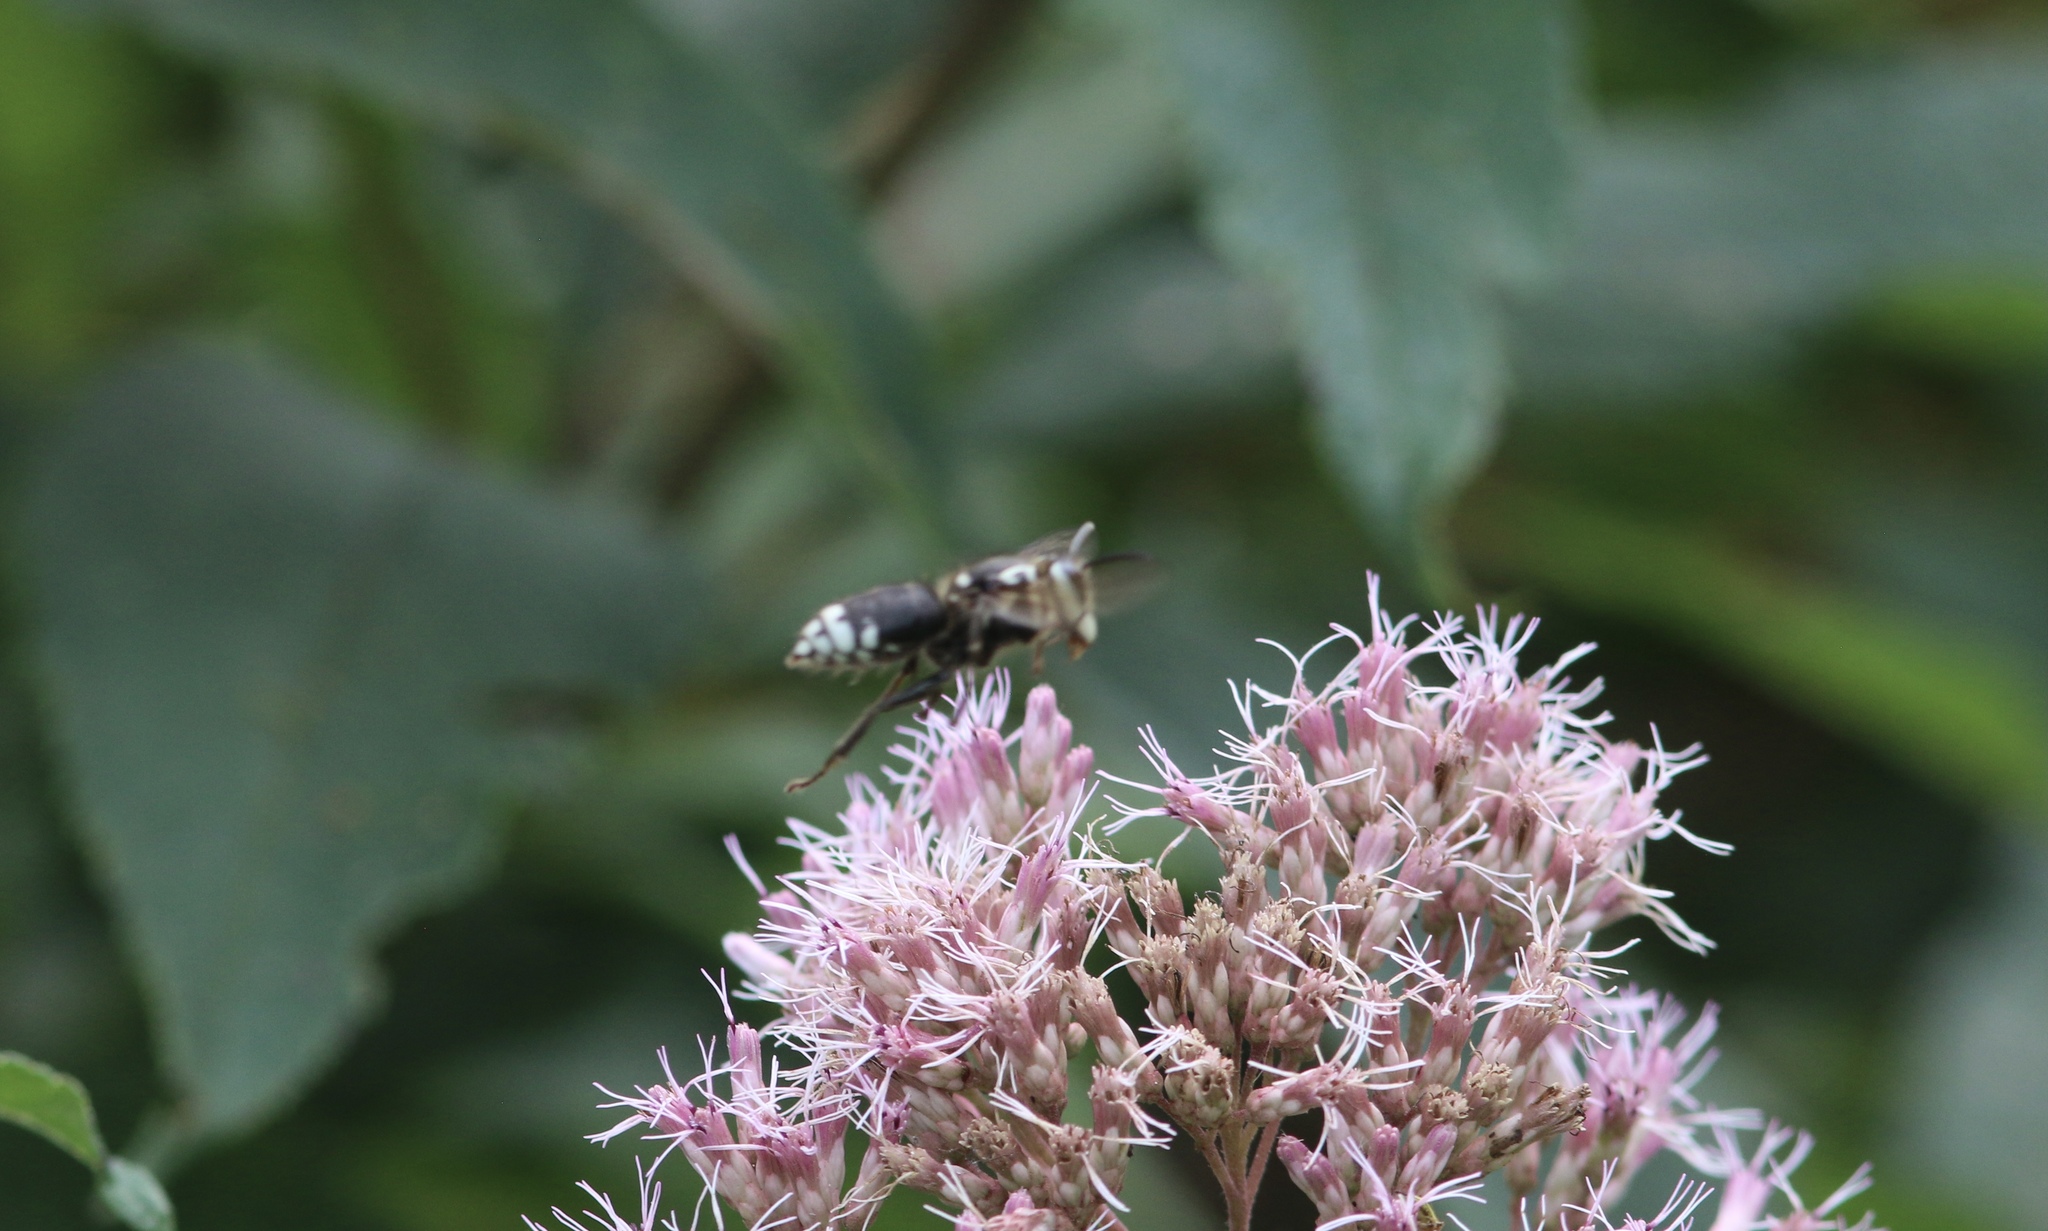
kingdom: Animalia
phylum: Arthropoda
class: Insecta
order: Hymenoptera
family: Vespidae
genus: Dolichovespula
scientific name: Dolichovespula maculata
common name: Bald-faced hornet
